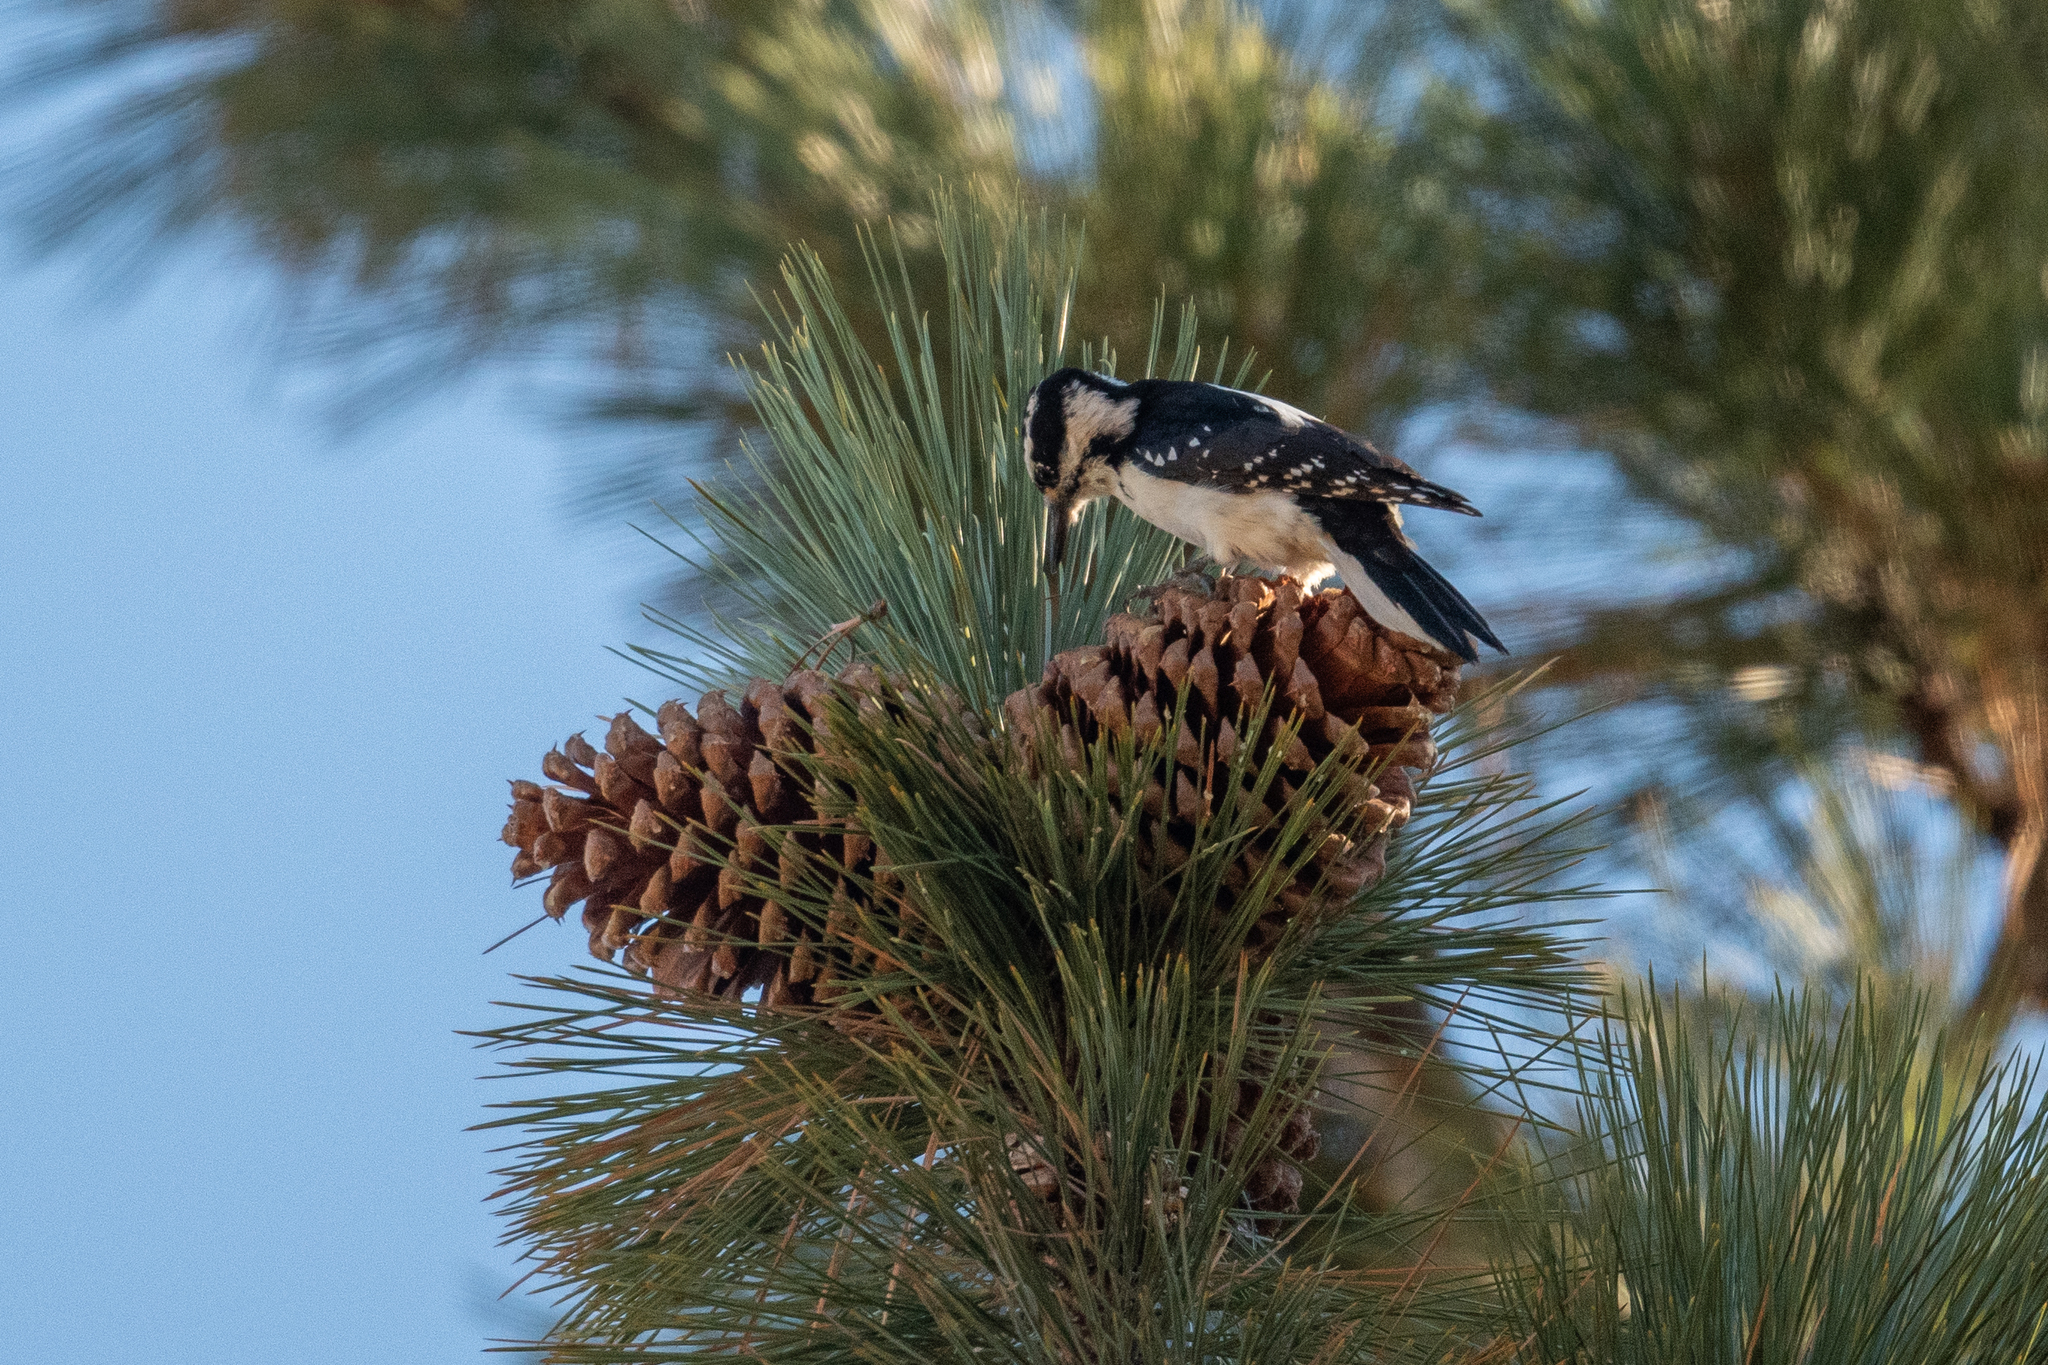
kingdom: Animalia
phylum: Chordata
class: Aves
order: Piciformes
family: Picidae
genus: Leuconotopicus
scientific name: Leuconotopicus villosus
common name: Hairy woodpecker
